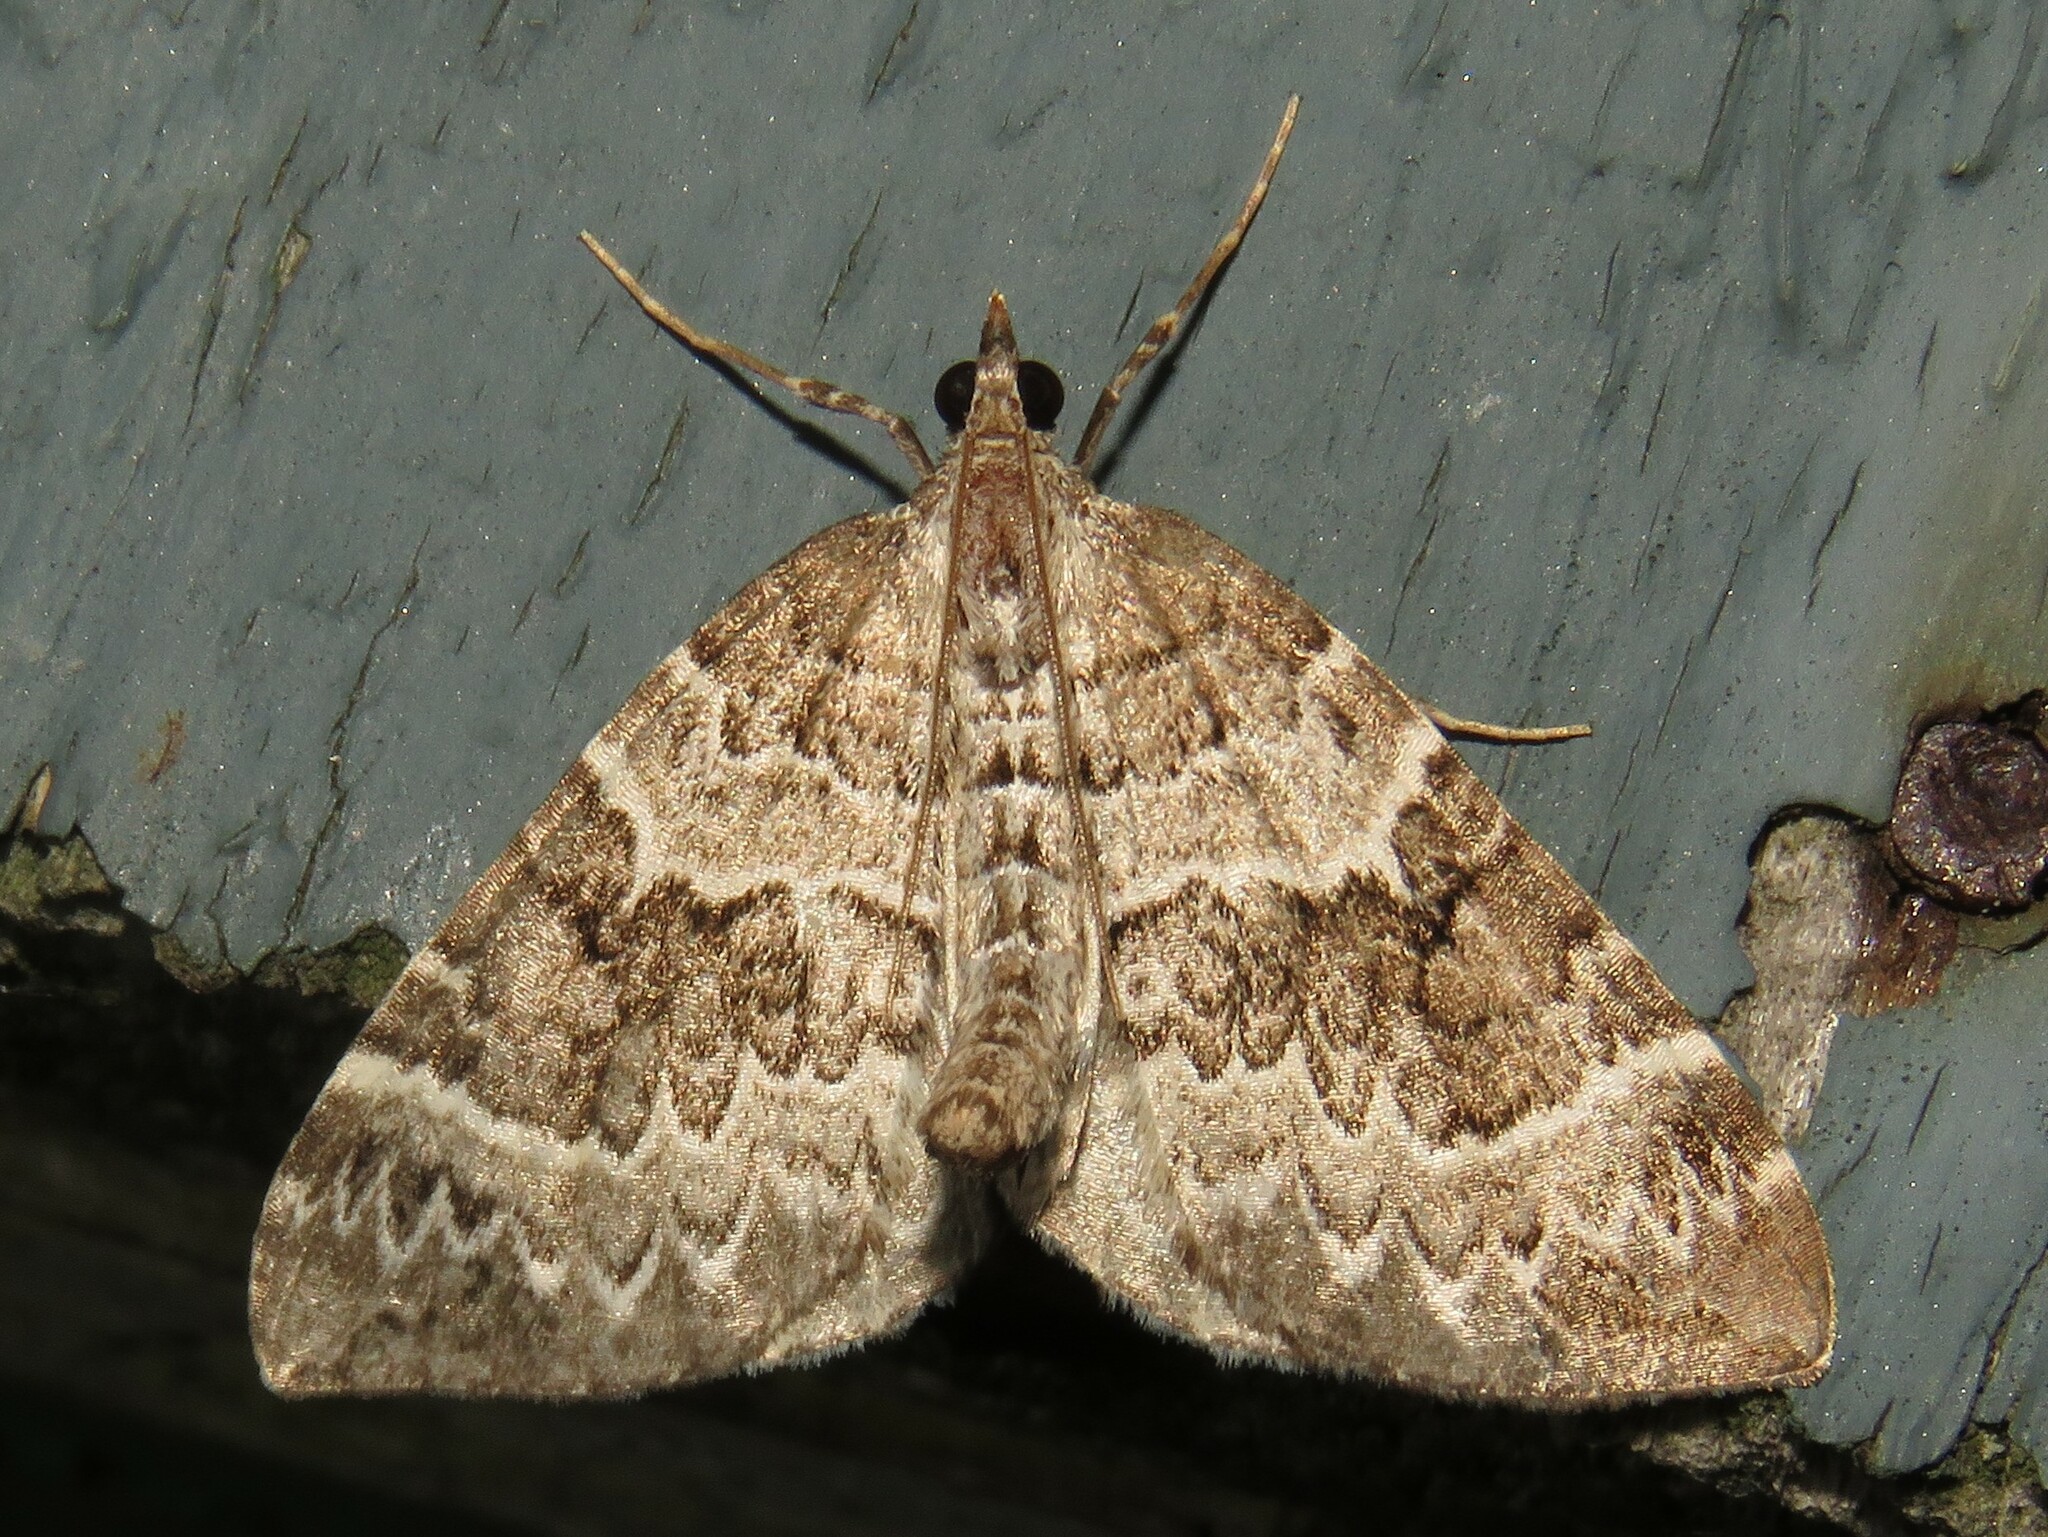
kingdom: Animalia
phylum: Arthropoda
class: Insecta
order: Lepidoptera
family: Geometridae
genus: Eulithis
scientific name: Eulithis explanata
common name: White eulithis
